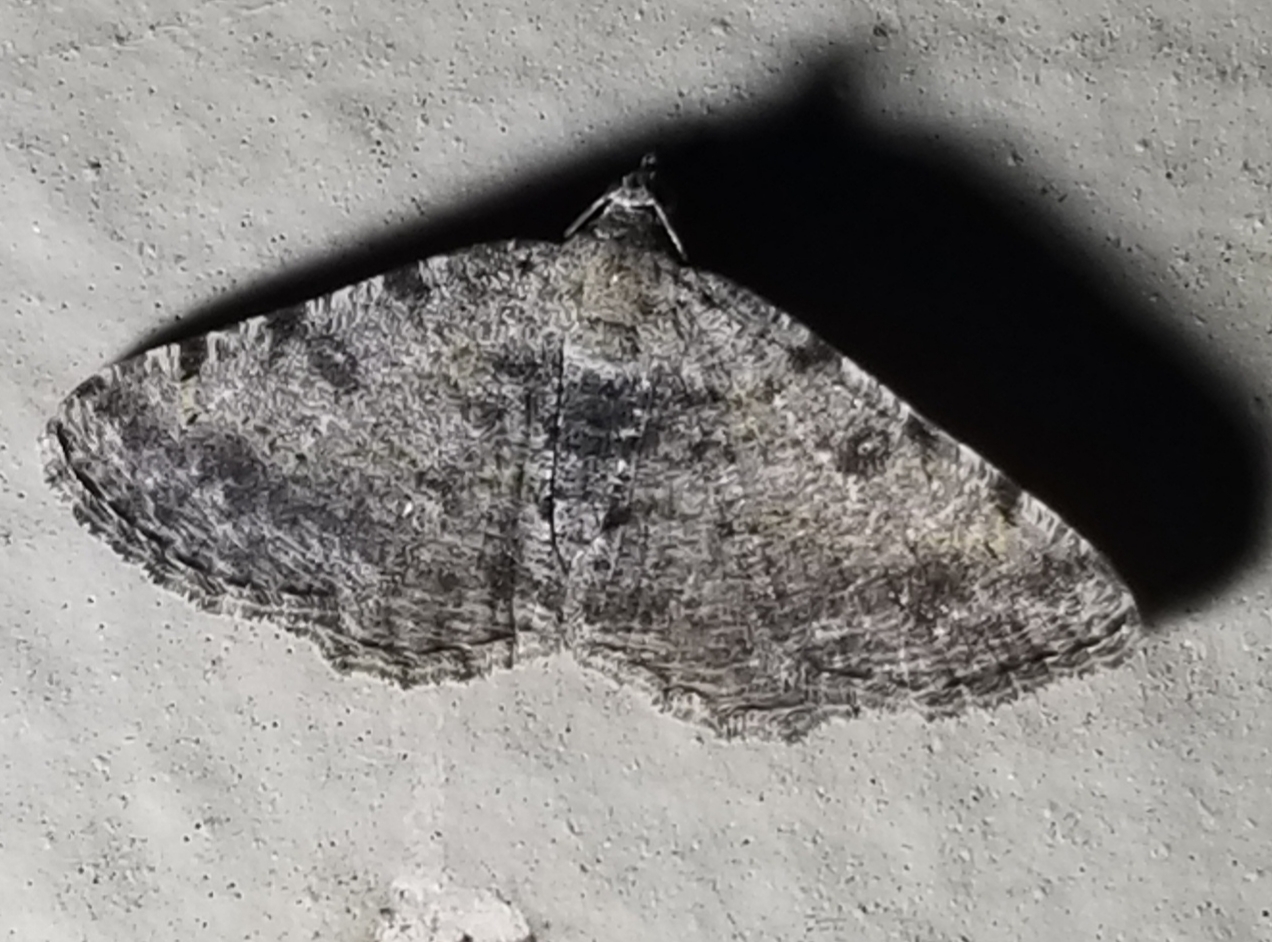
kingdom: Animalia
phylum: Arthropoda
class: Insecta
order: Lepidoptera
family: Geometridae
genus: Digrammia
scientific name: Digrammia gnophosaria
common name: Hollow-spotted angle
